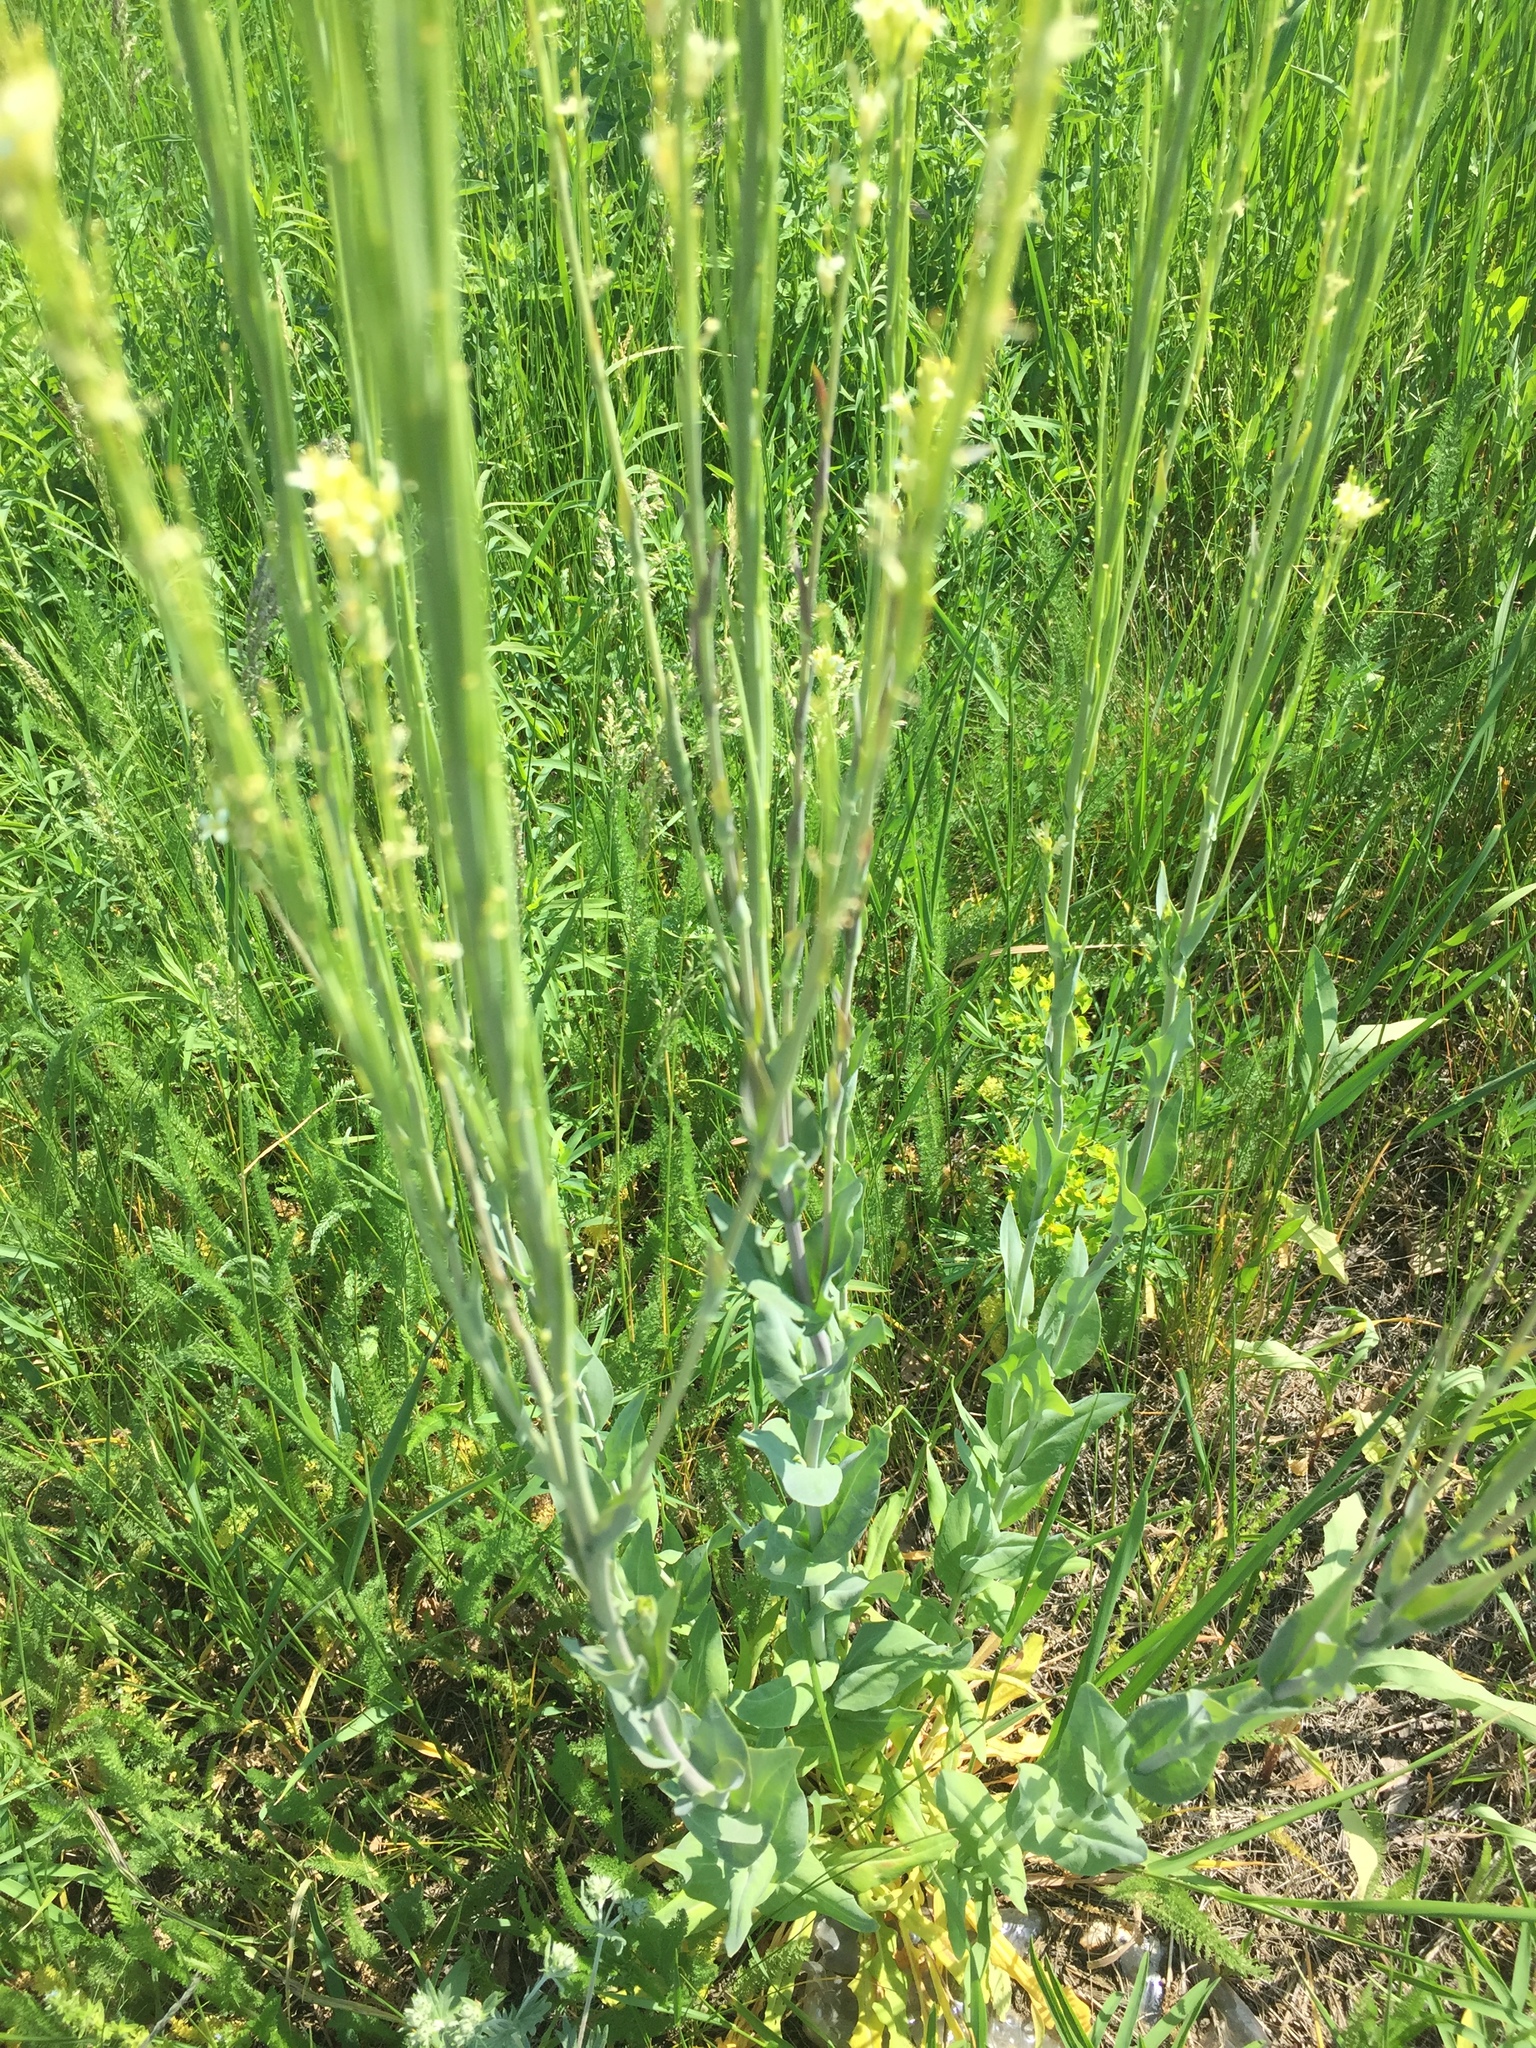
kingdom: Plantae
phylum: Tracheophyta
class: Magnoliopsida
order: Brassicales
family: Brassicaceae
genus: Turritis
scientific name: Turritis glabra
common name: Tower rockcress
